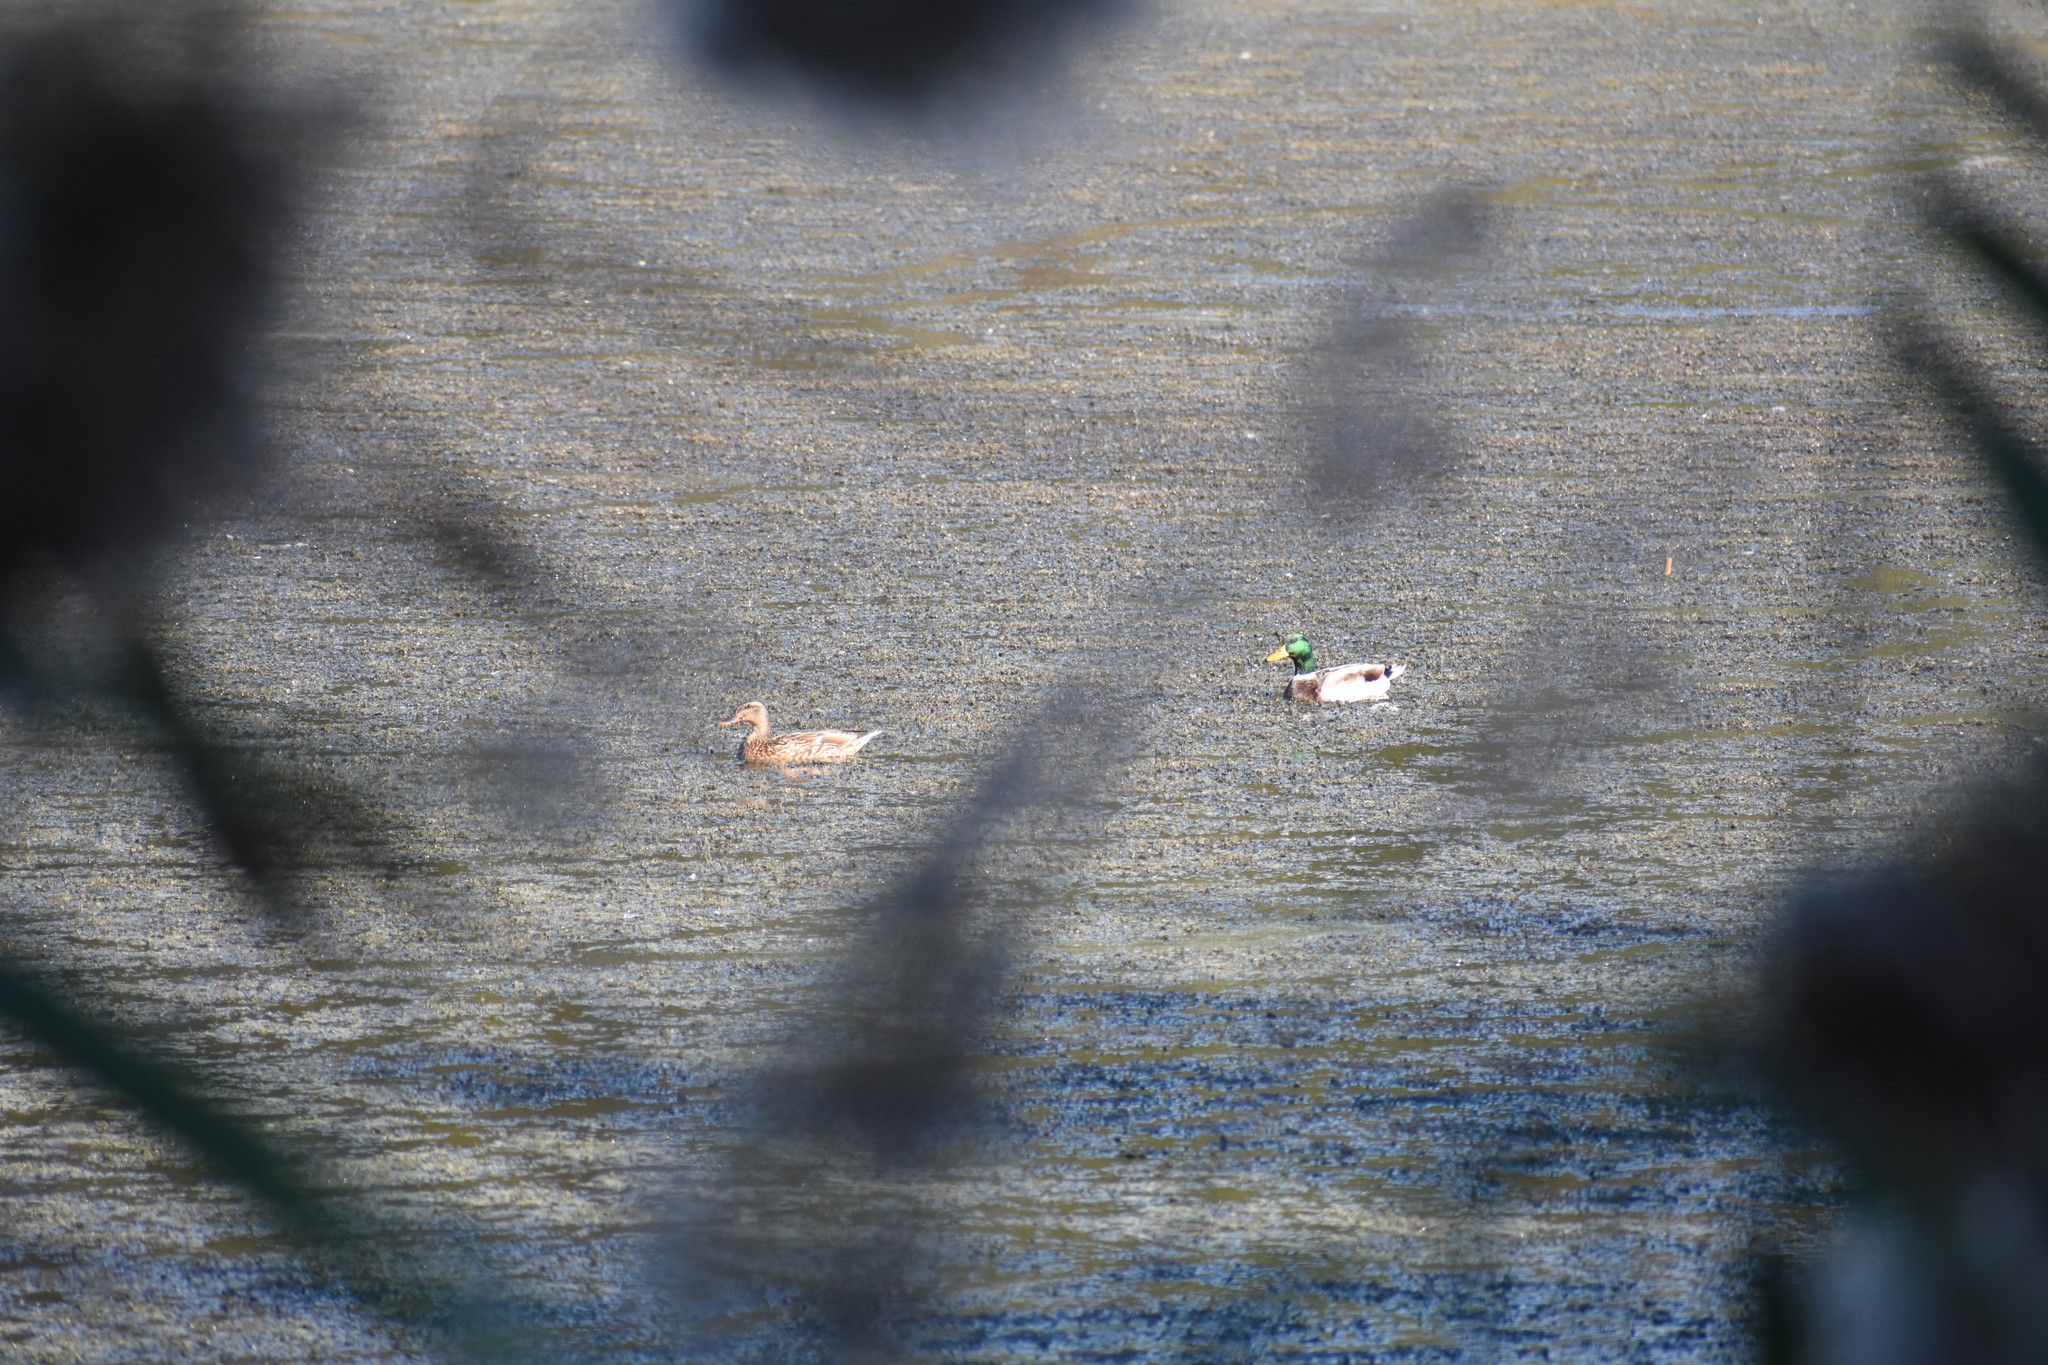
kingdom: Animalia
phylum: Chordata
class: Aves
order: Anseriformes
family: Anatidae
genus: Anas
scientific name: Anas platyrhynchos
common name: Mallard
